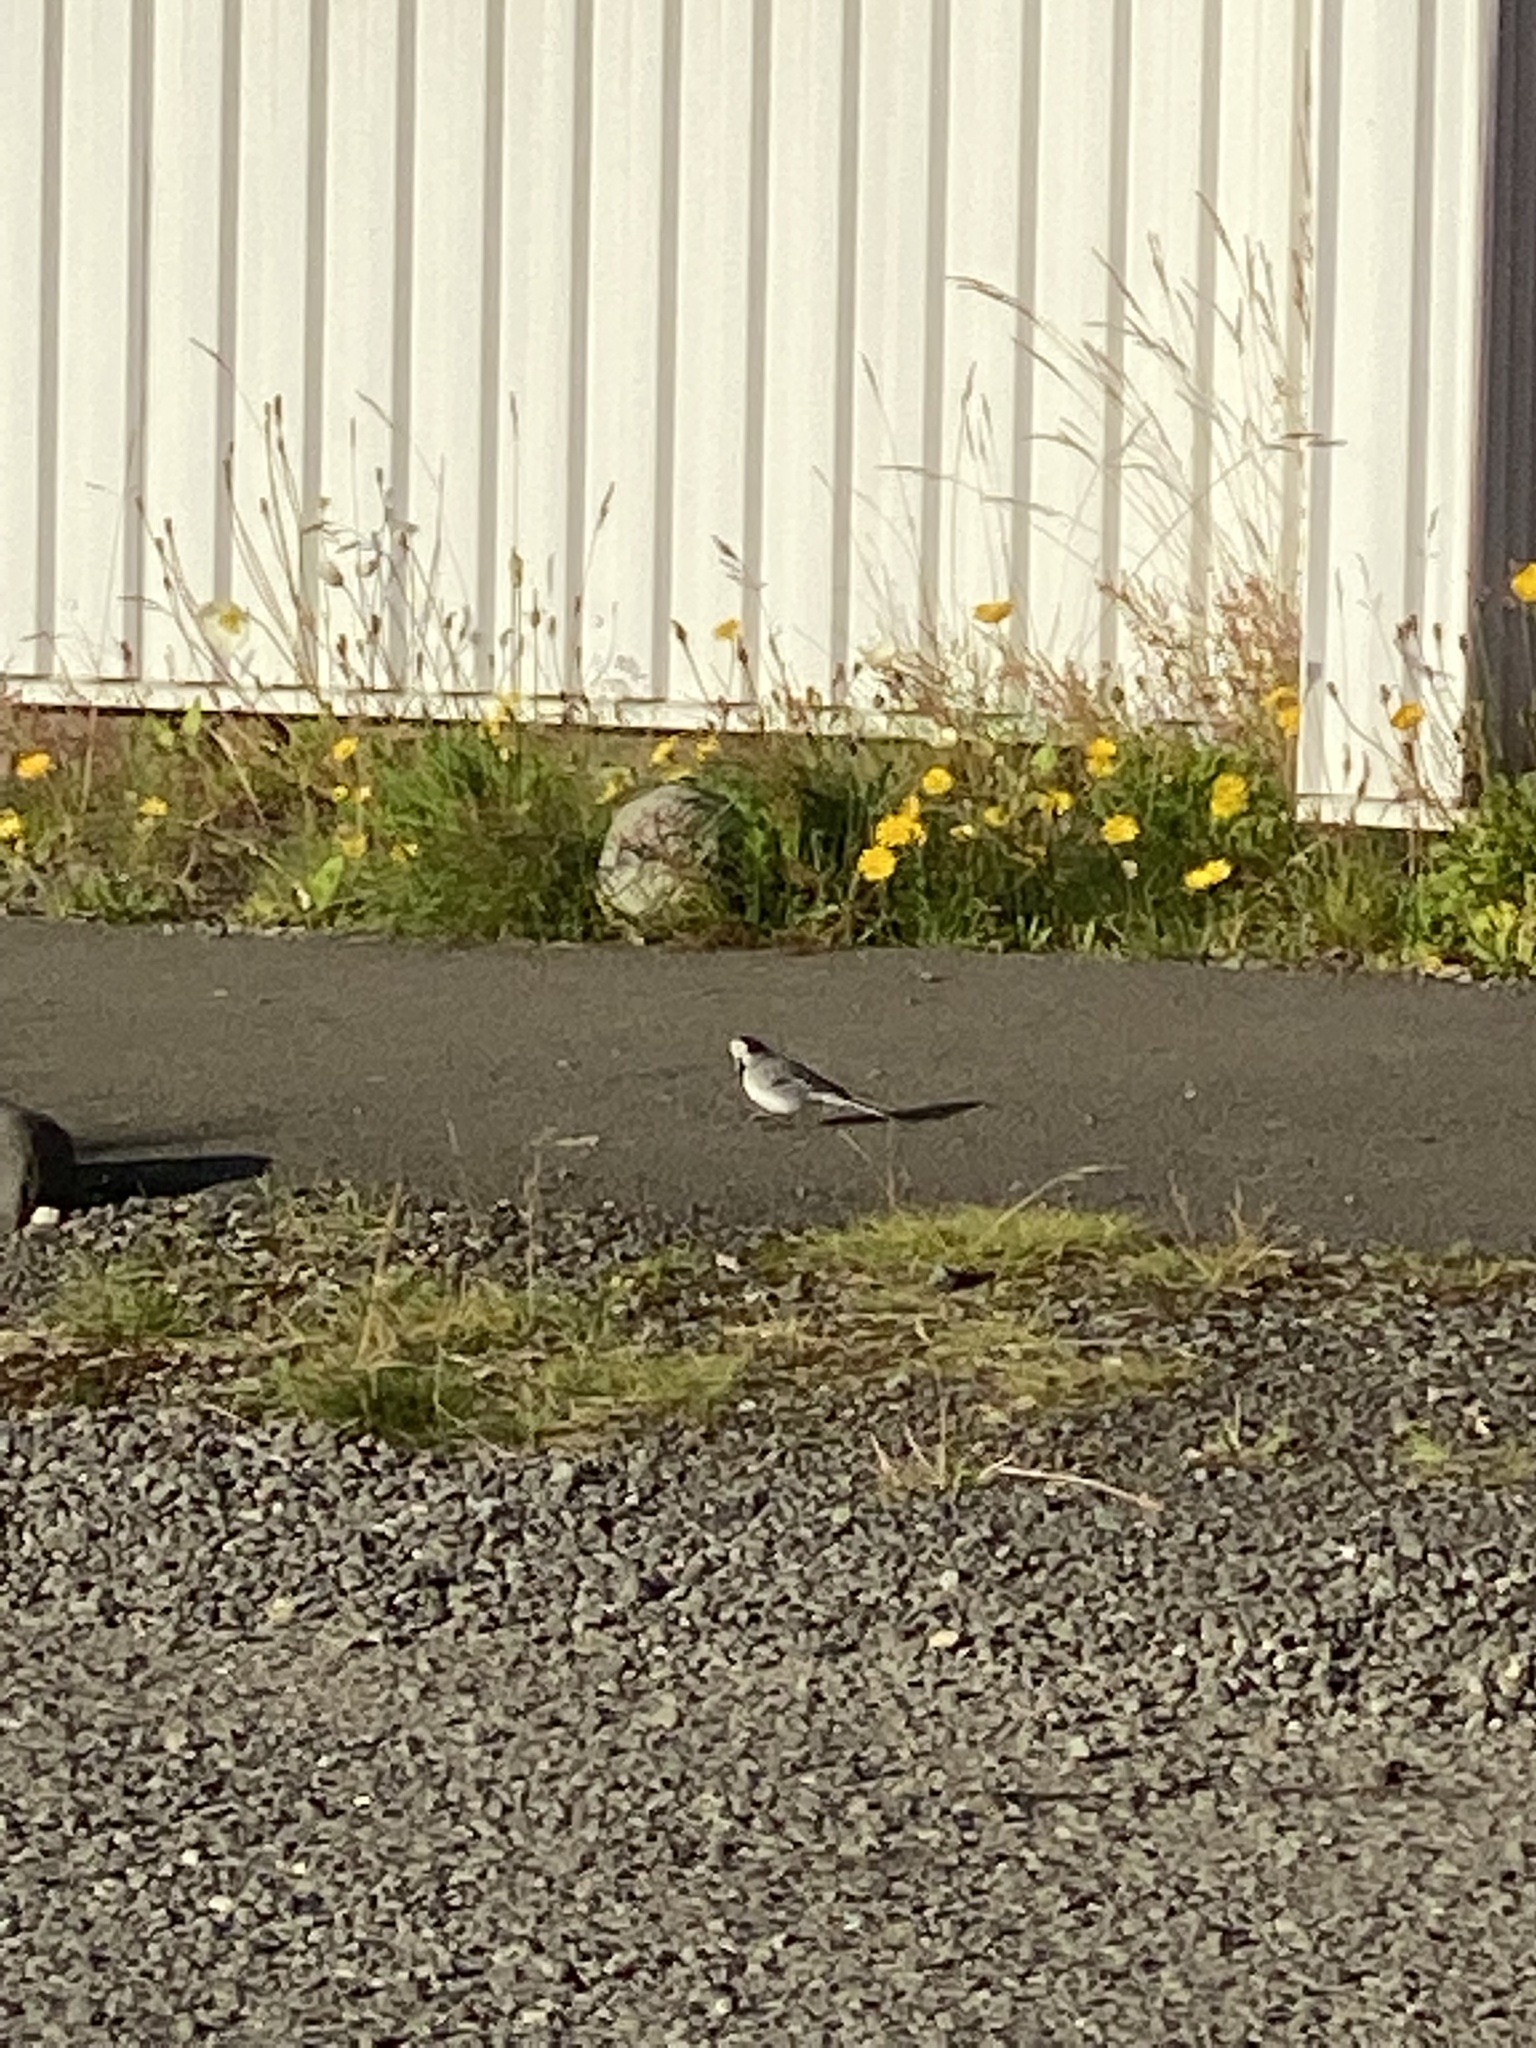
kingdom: Animalia
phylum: Chordata
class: Aves
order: Passeriformes
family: Motacillidae
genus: Motacilla
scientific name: Motacilla alba
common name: White wagtail
